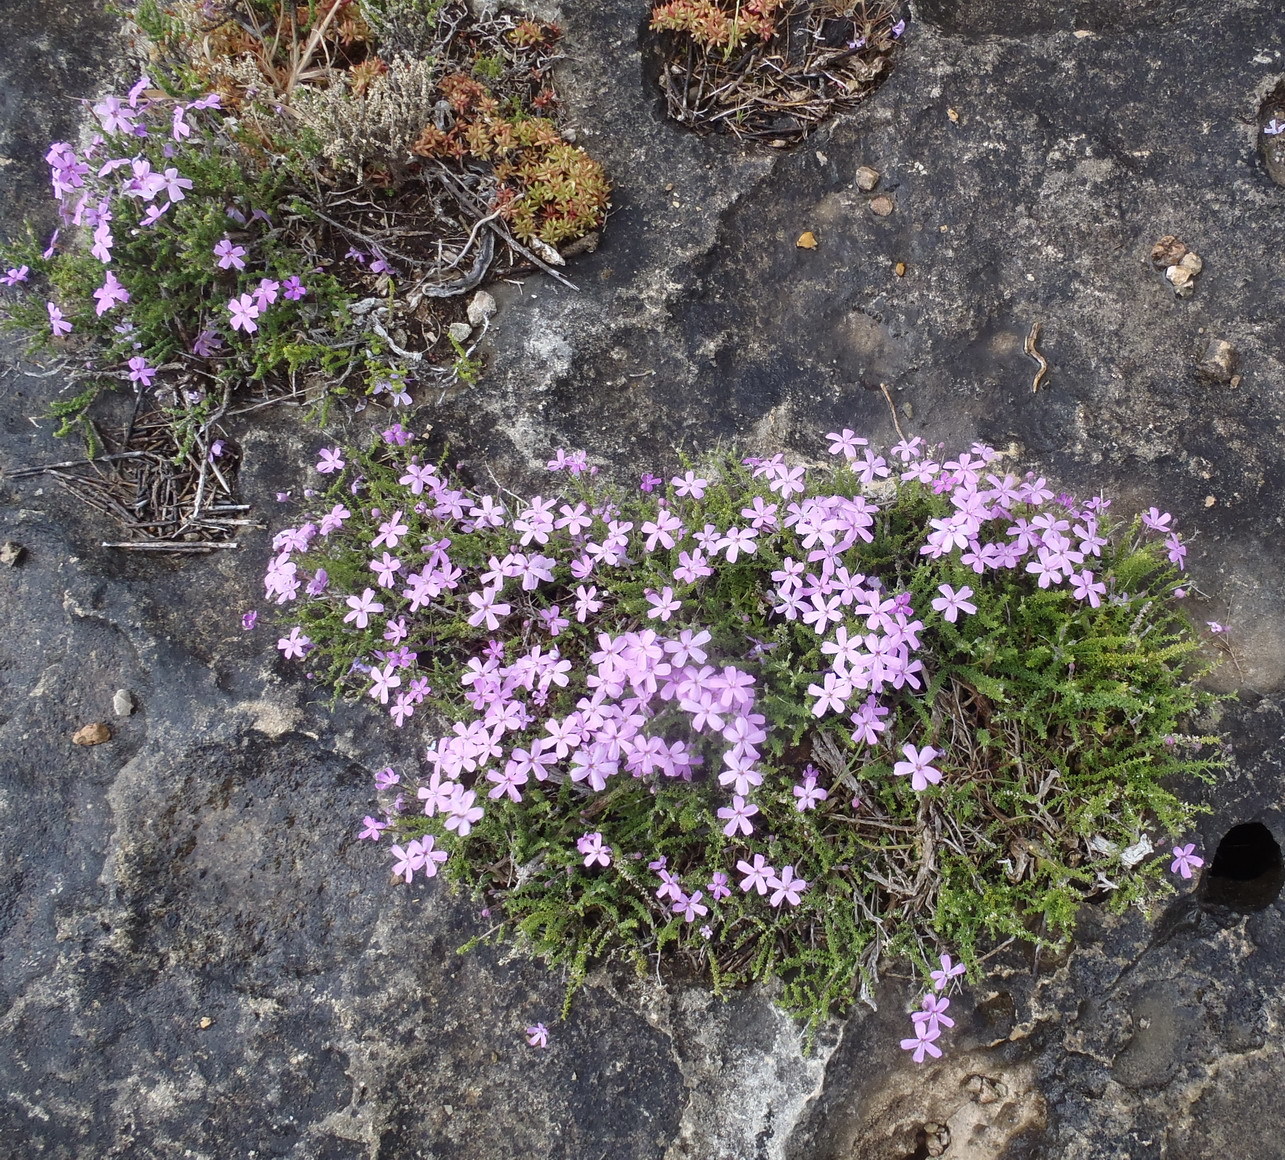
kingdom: Plantae
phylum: Tracheophyta
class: Magnoliopsida
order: Lamiales
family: Scrophulariaceae
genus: Jamesbrittenia
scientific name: Jamesbrittenia calciphila
